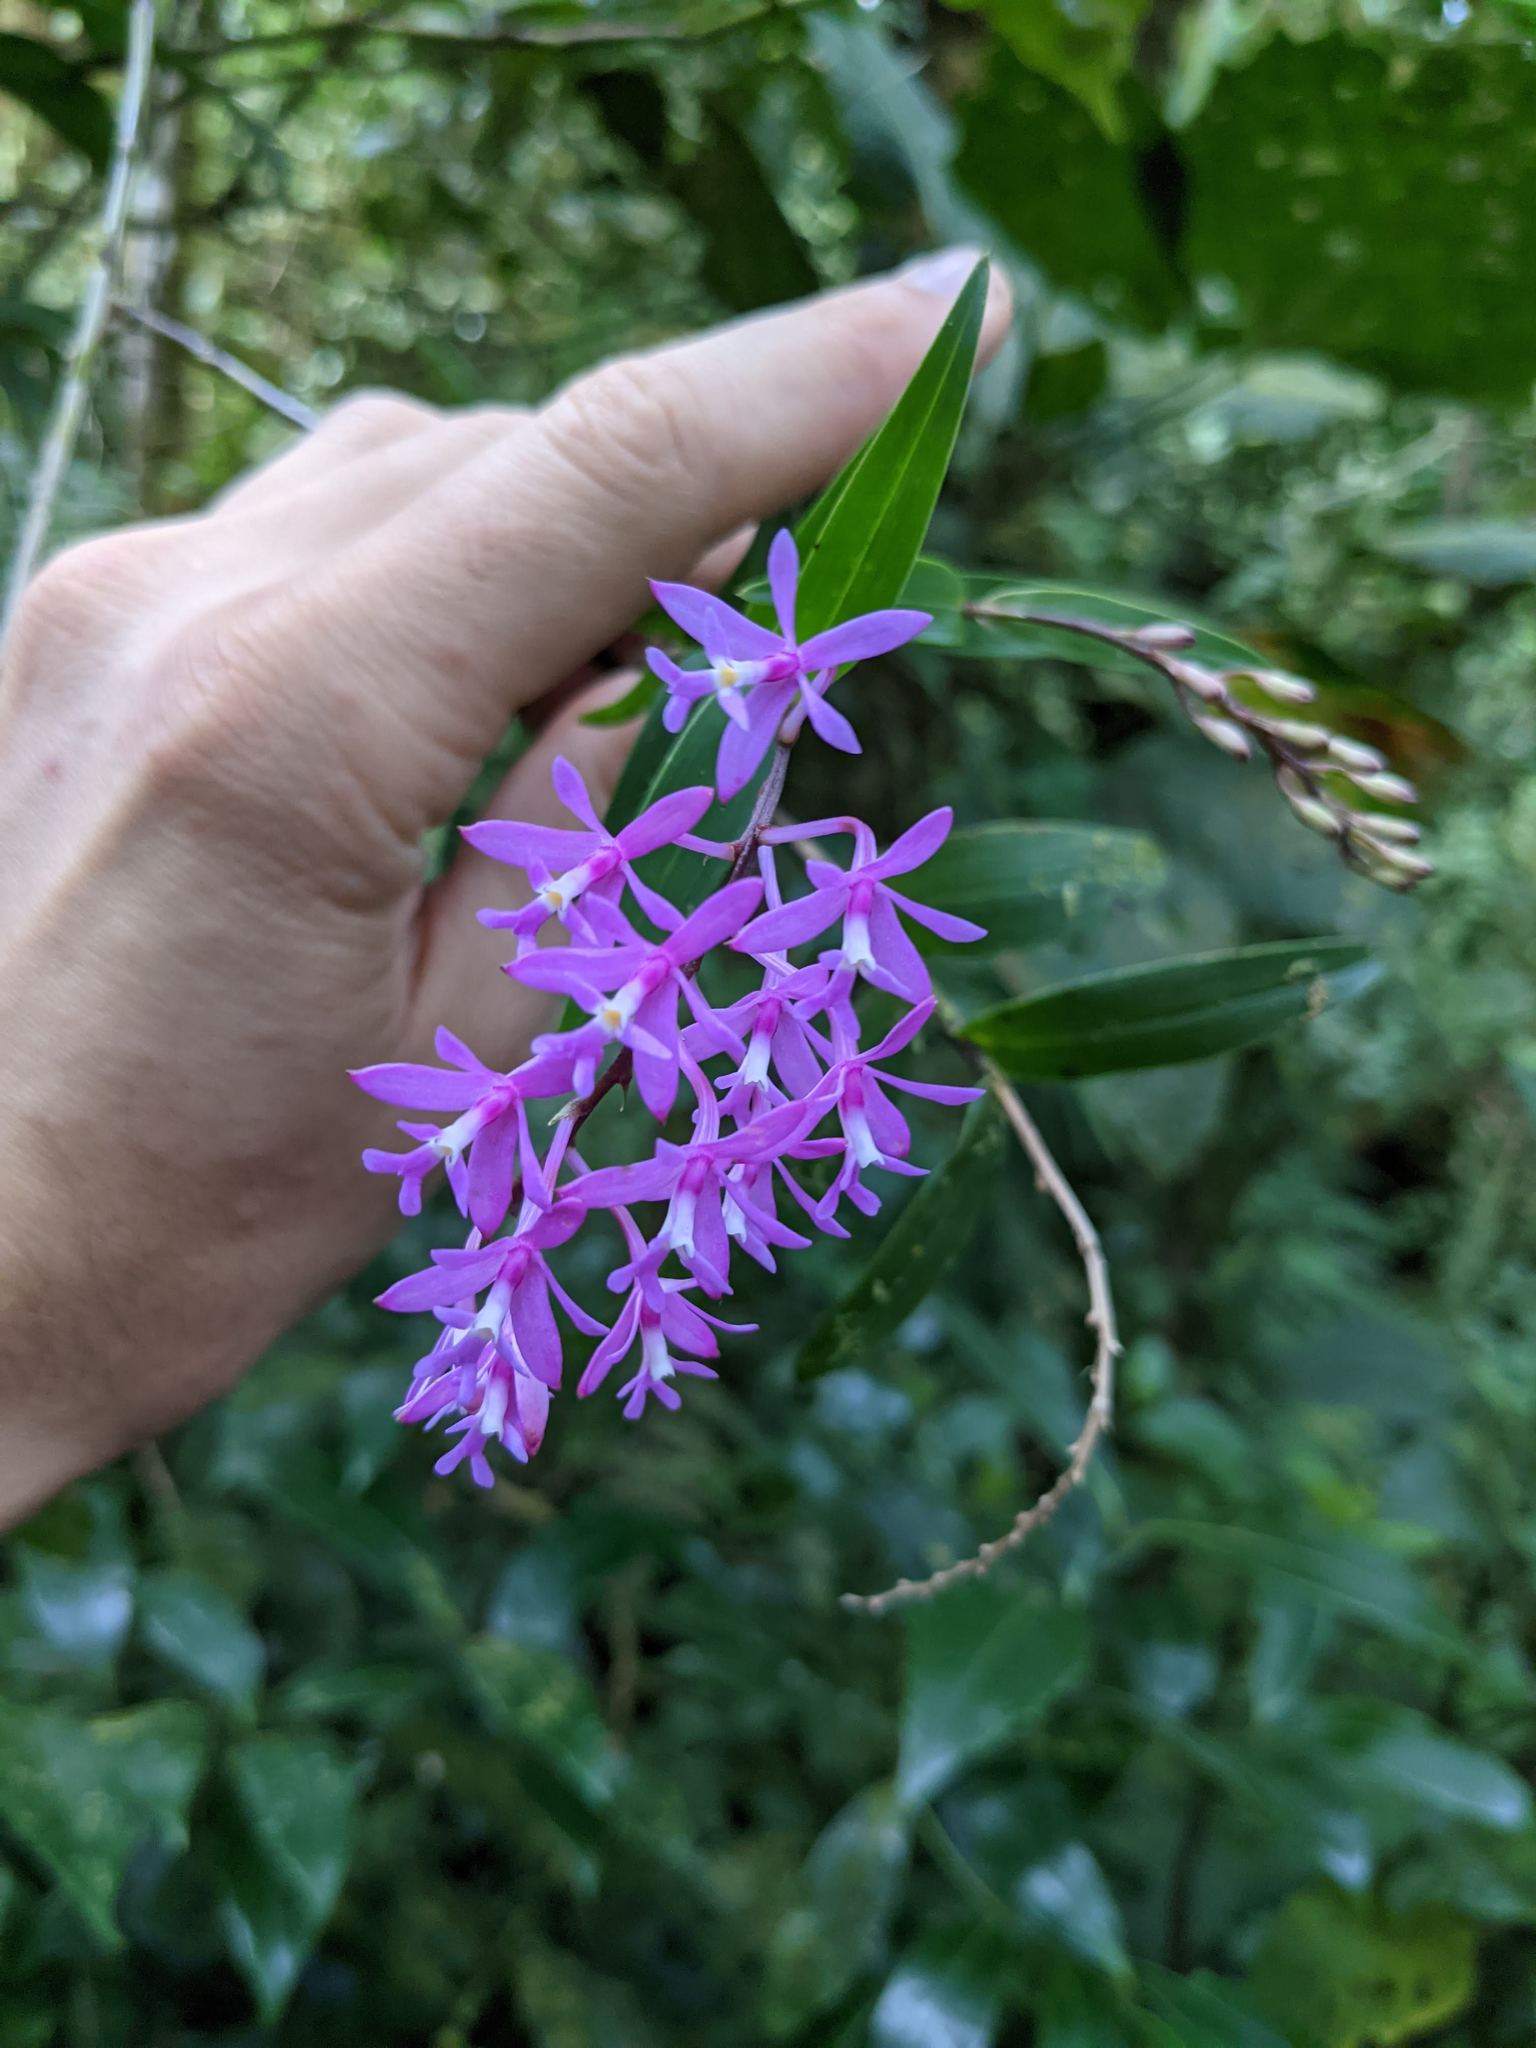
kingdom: Plantae
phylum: Tracheophyta
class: Liliopsida
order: Asparagales
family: Orchidaceae
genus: Epidendrum
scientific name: Epidendrum aberrans
